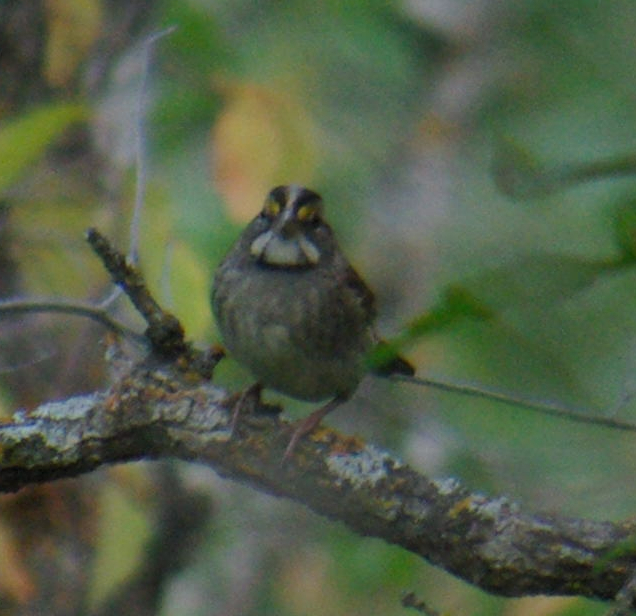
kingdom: Animalia
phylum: Chordata
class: Aves
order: Passeriformes
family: Passerellidae
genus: Zonotrichia
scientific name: Zonotrichia albicollis
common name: White-throated sparrow
